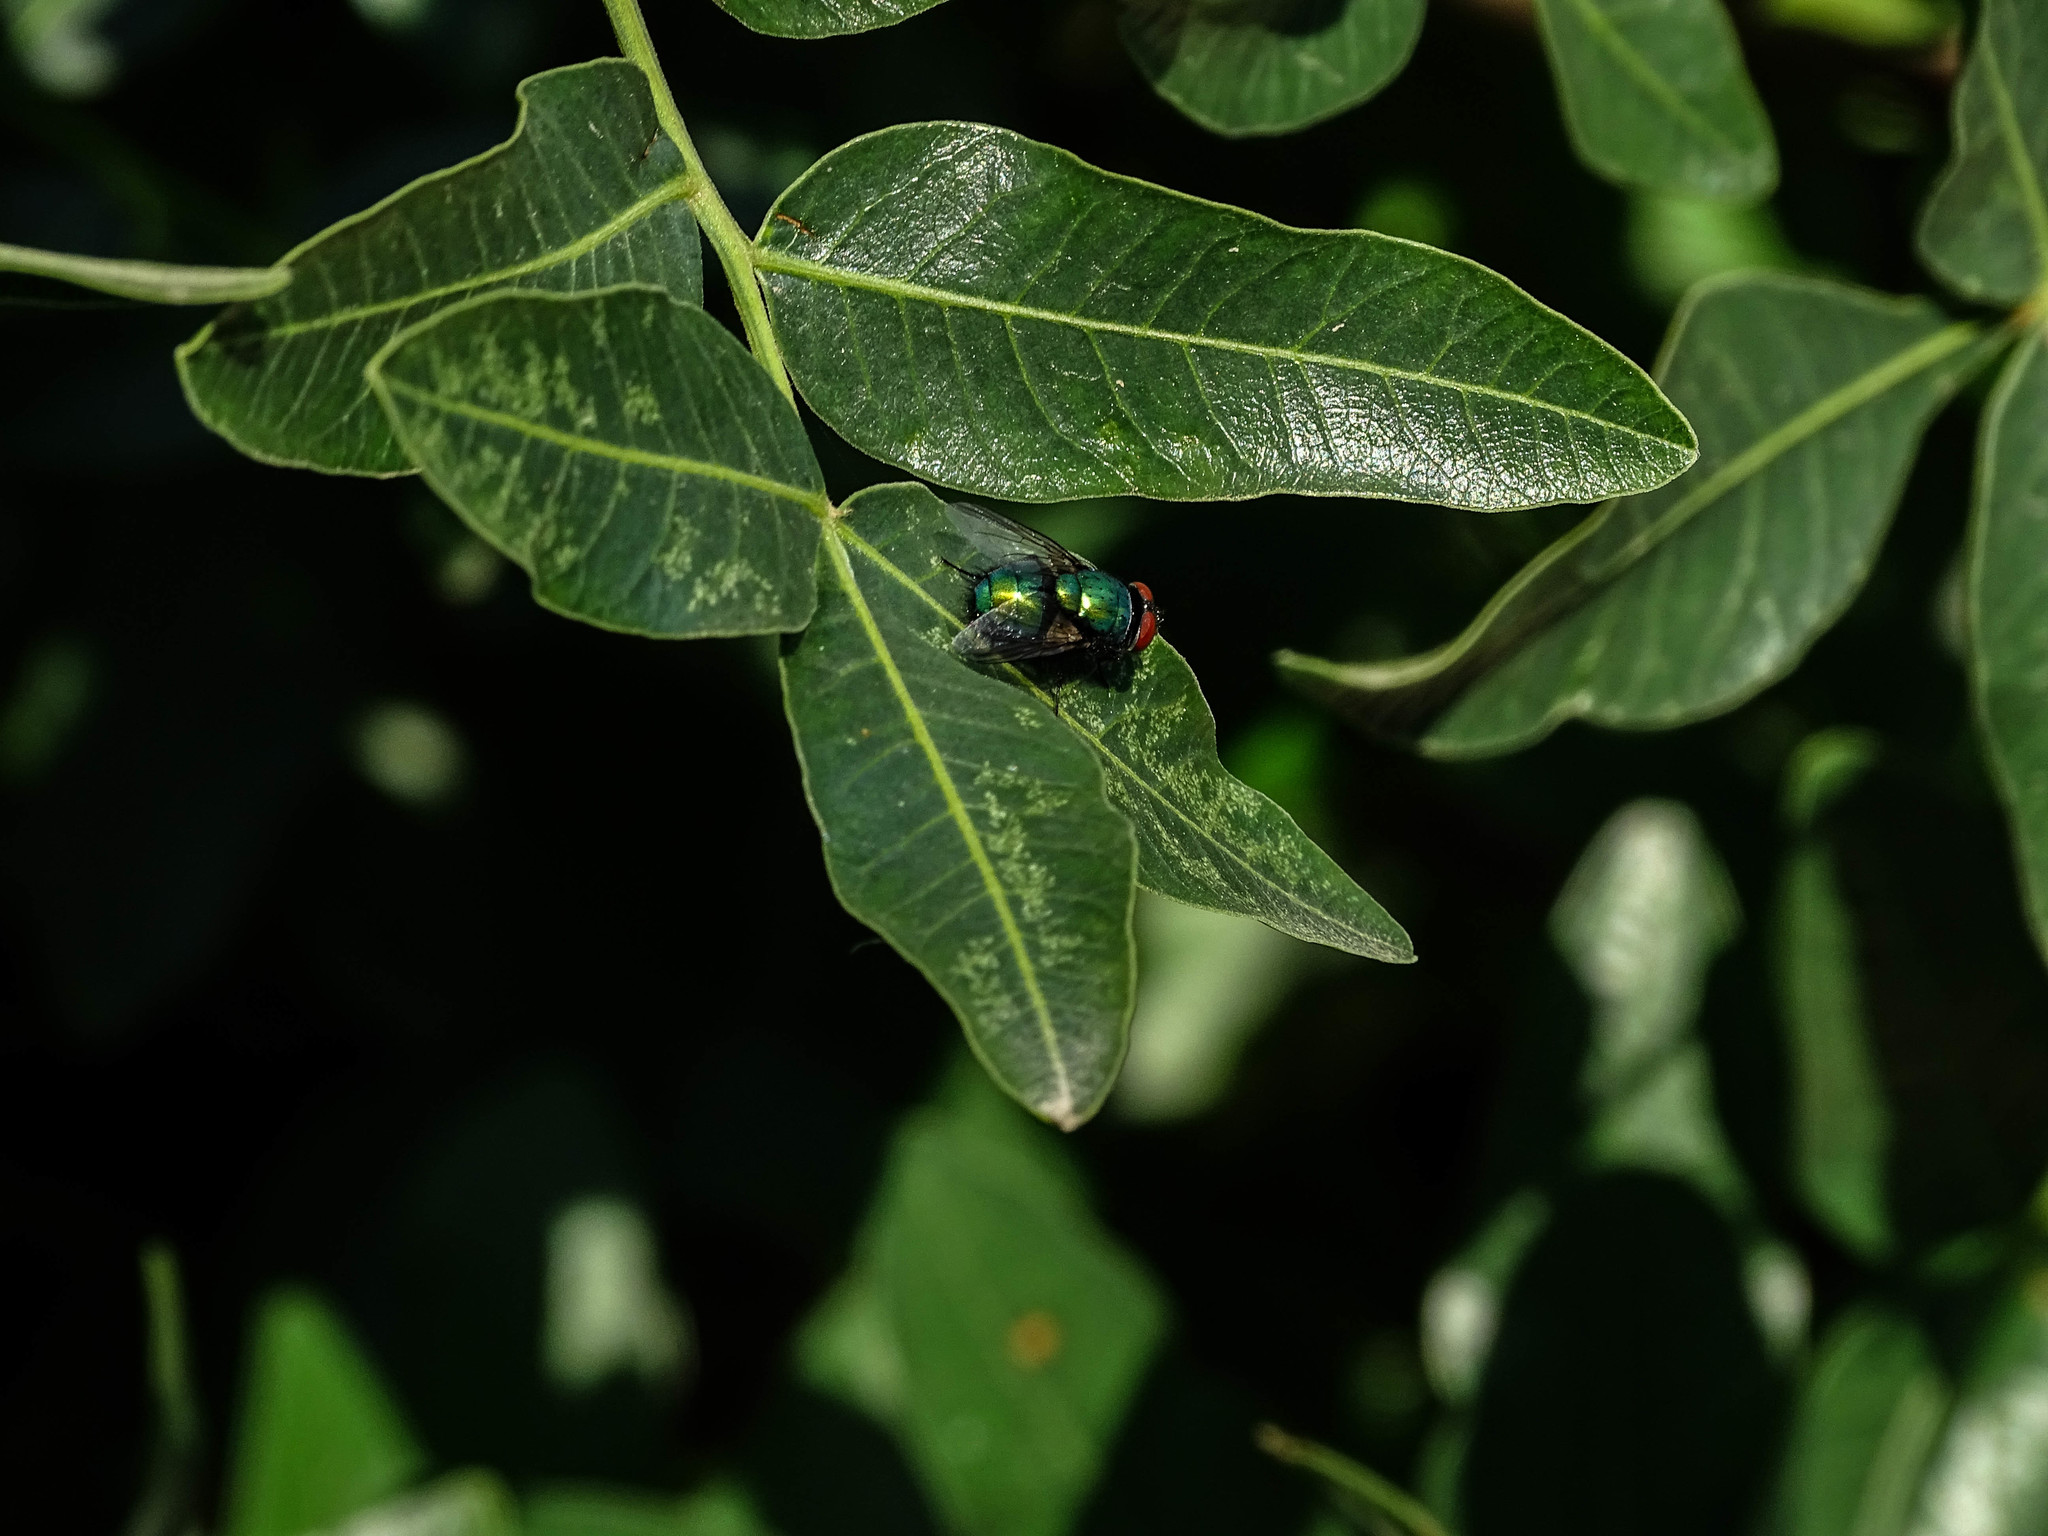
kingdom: Animalia
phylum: Arthropoda
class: Insecta
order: Diptera
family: Calliphoridae
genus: Lucilia
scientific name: Lucilia sericata
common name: Blow fly
